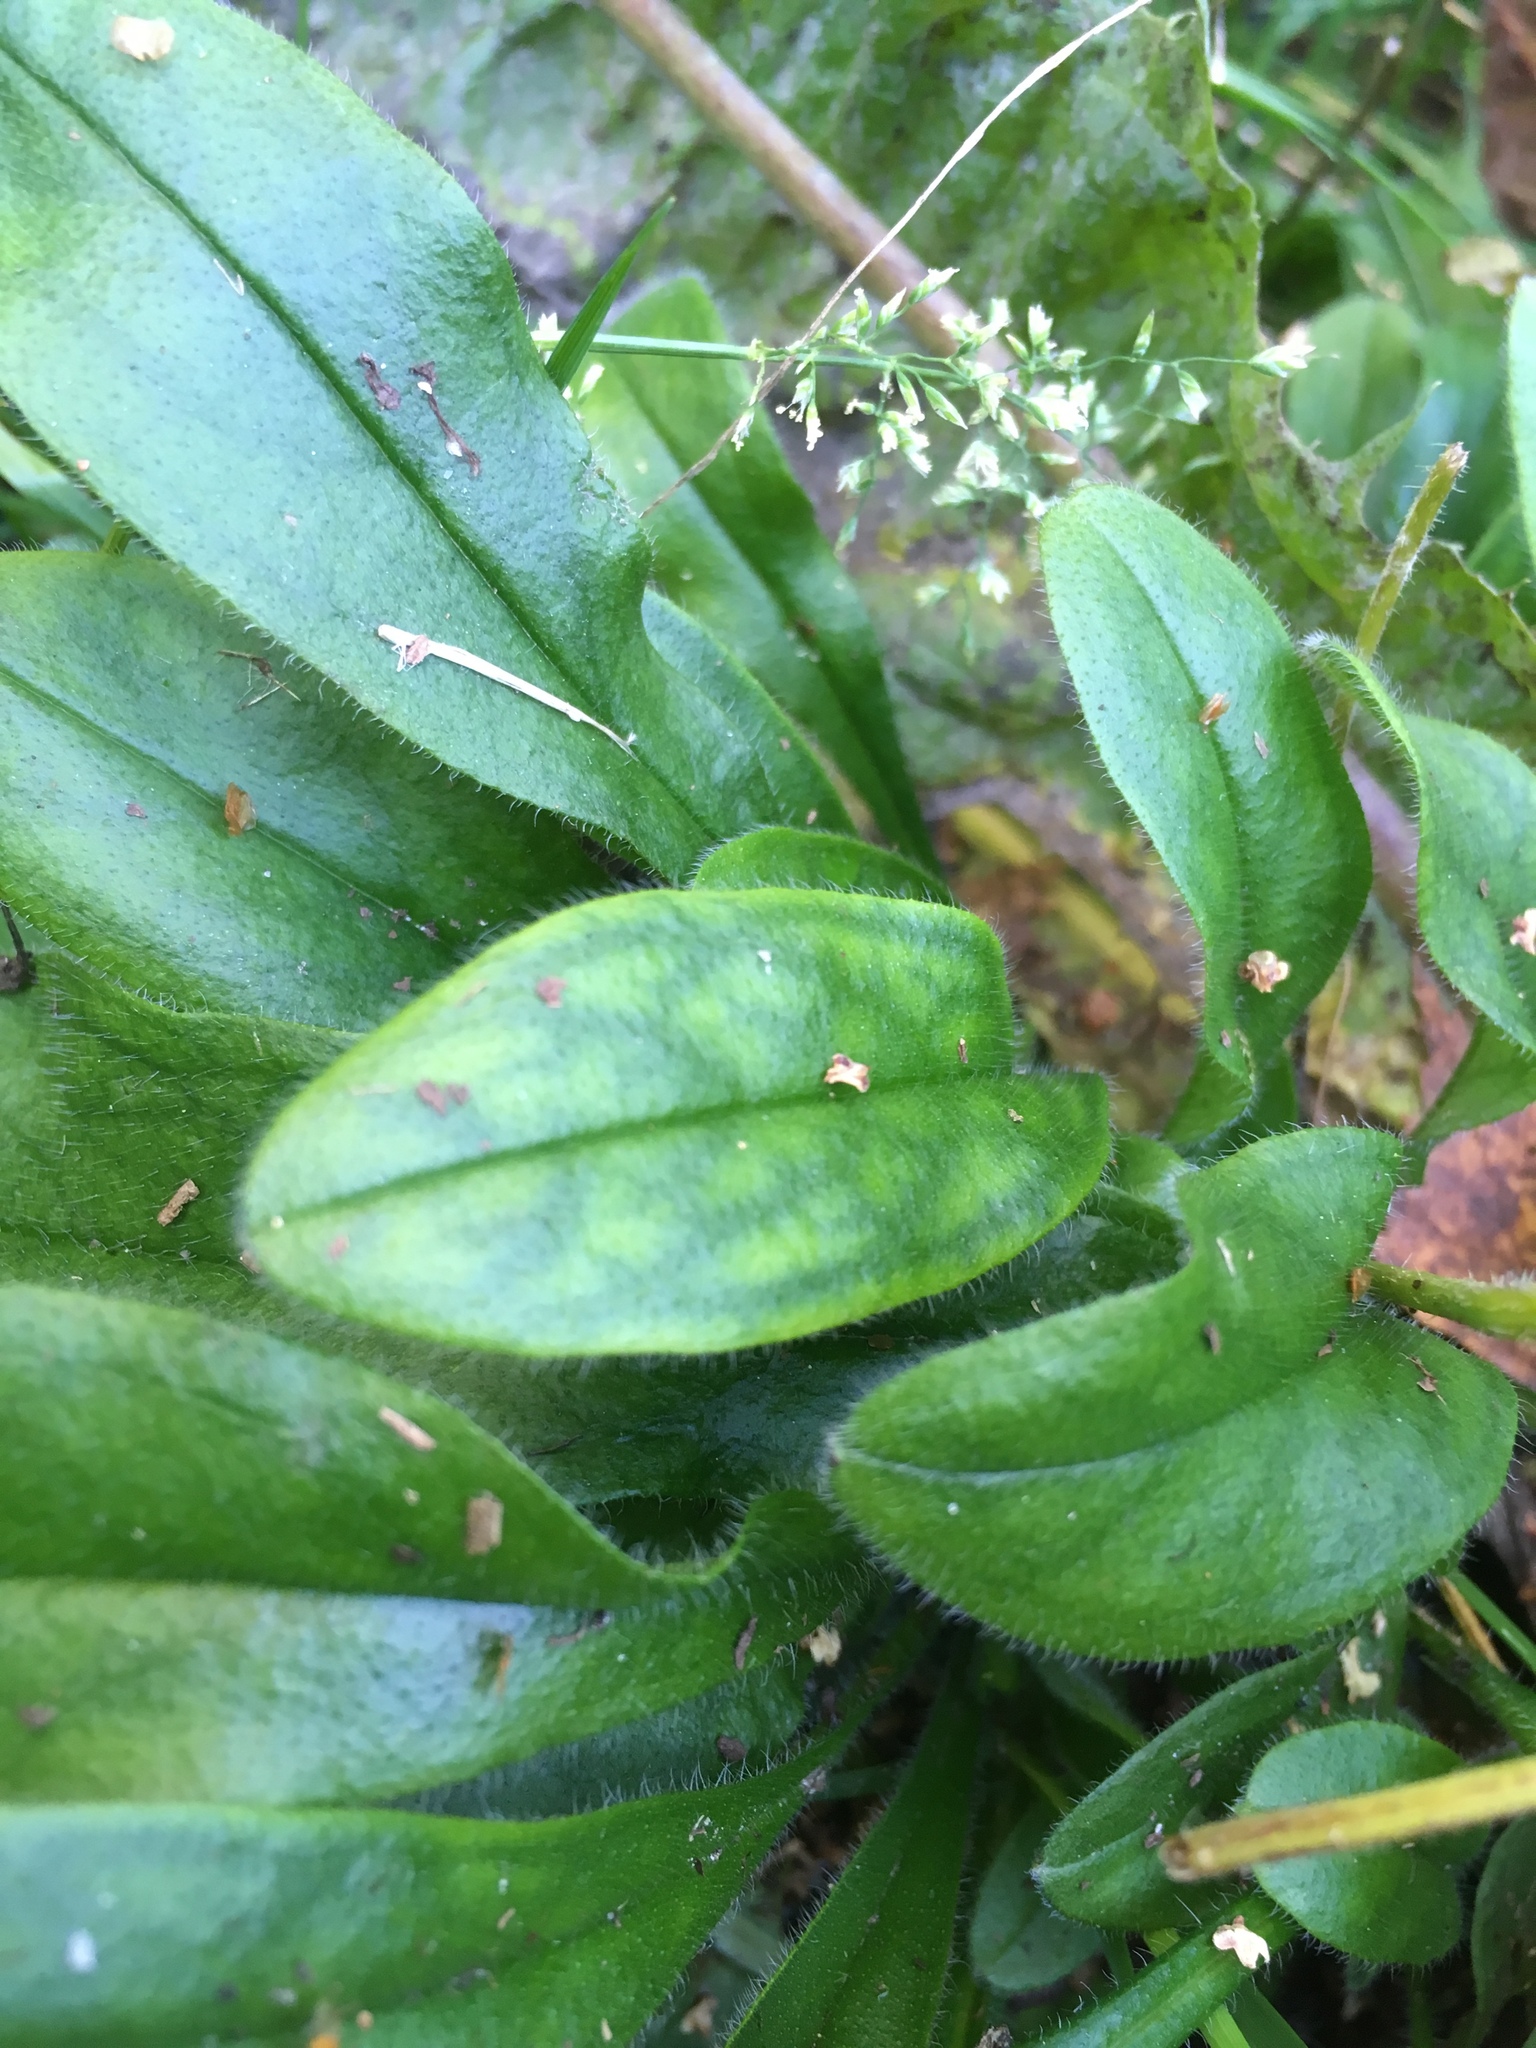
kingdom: Plantae
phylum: Tracheophyta
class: Magnoliopsida
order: Boraginales
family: Boraginaceae
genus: Myosotis
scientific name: Myosotis sylvatica
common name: Wood forget-me-not
